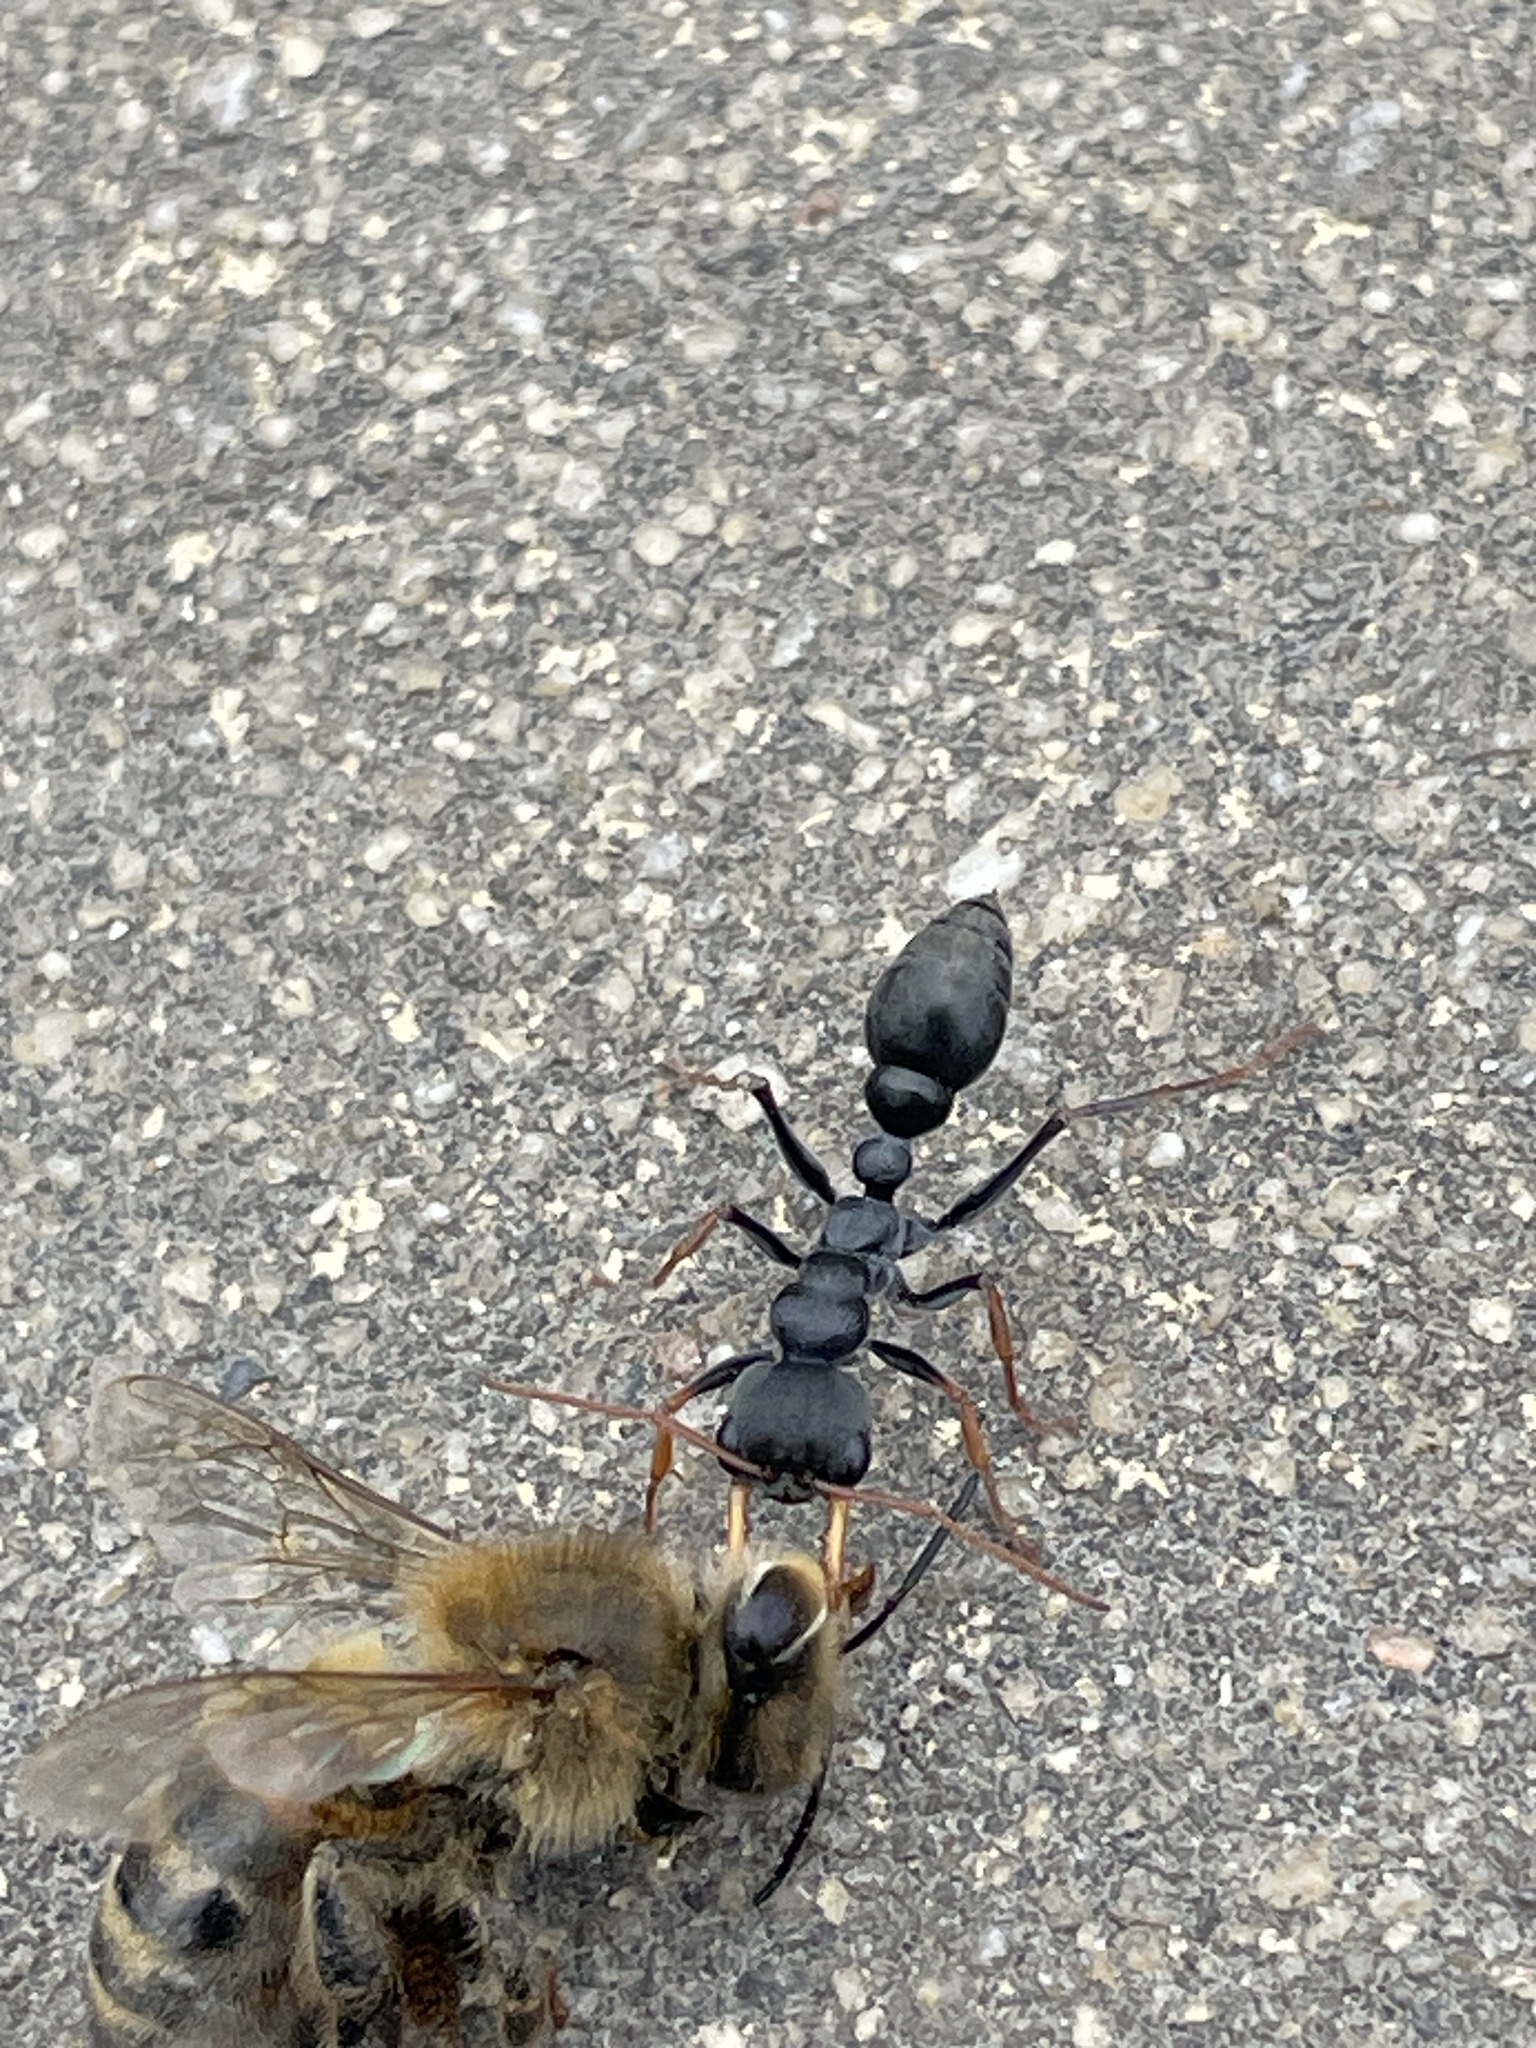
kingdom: Animalia
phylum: Arthropoda
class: Insecta
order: Hymenoptera
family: Apidae
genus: Apis
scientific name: Apis mellifera
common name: Honey bee
